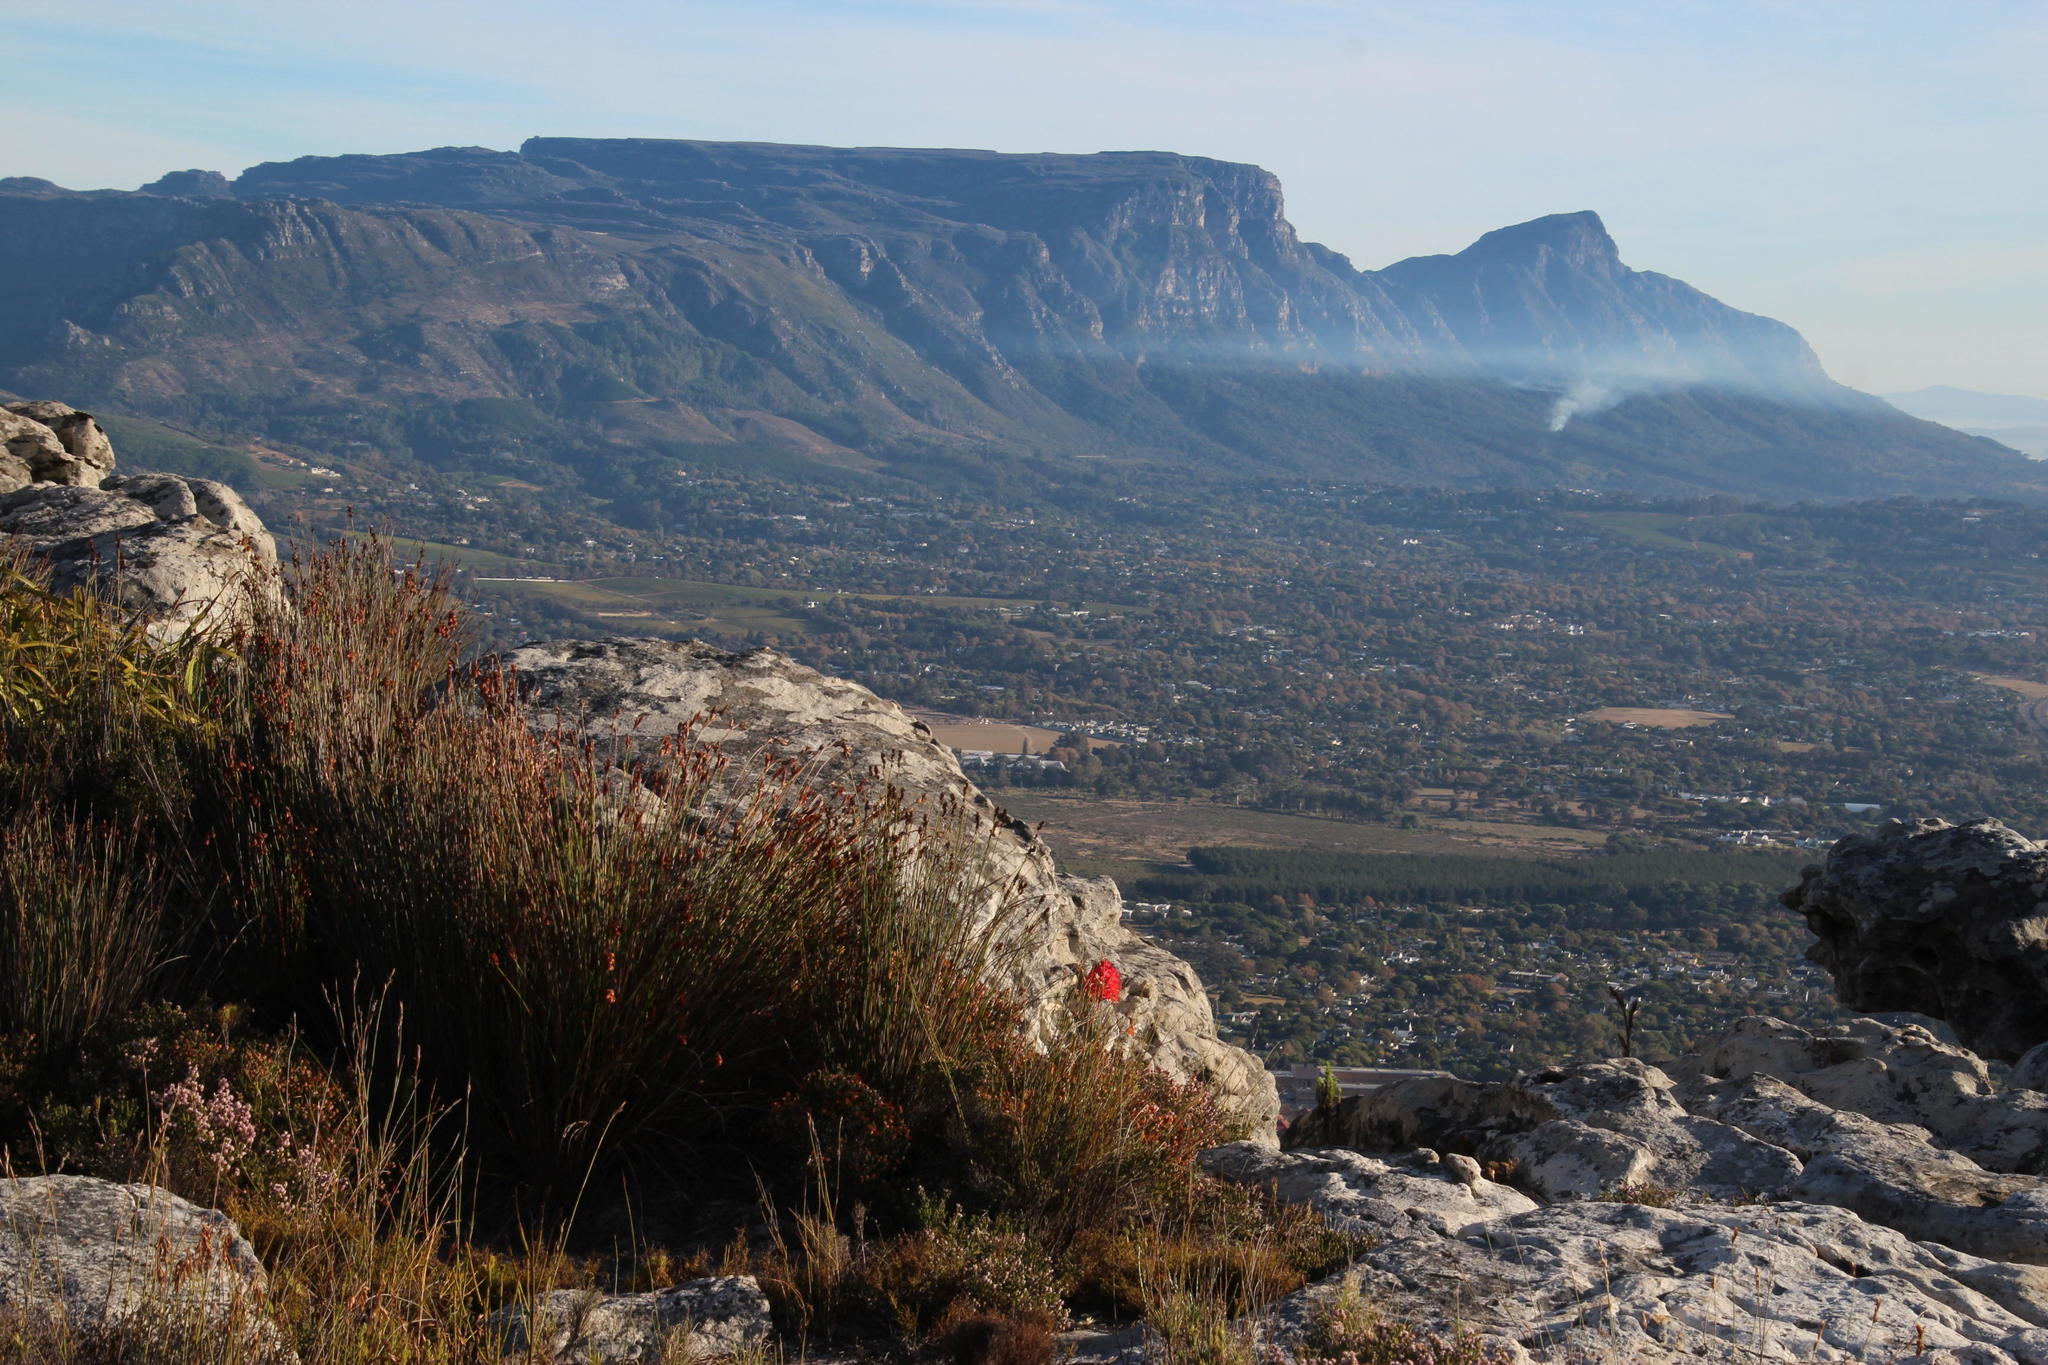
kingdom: Plantae
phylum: Tracheophyta
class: Liliopsida
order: Asparagales
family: Orchidaceae
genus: Disa
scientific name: Disa ferruginea
